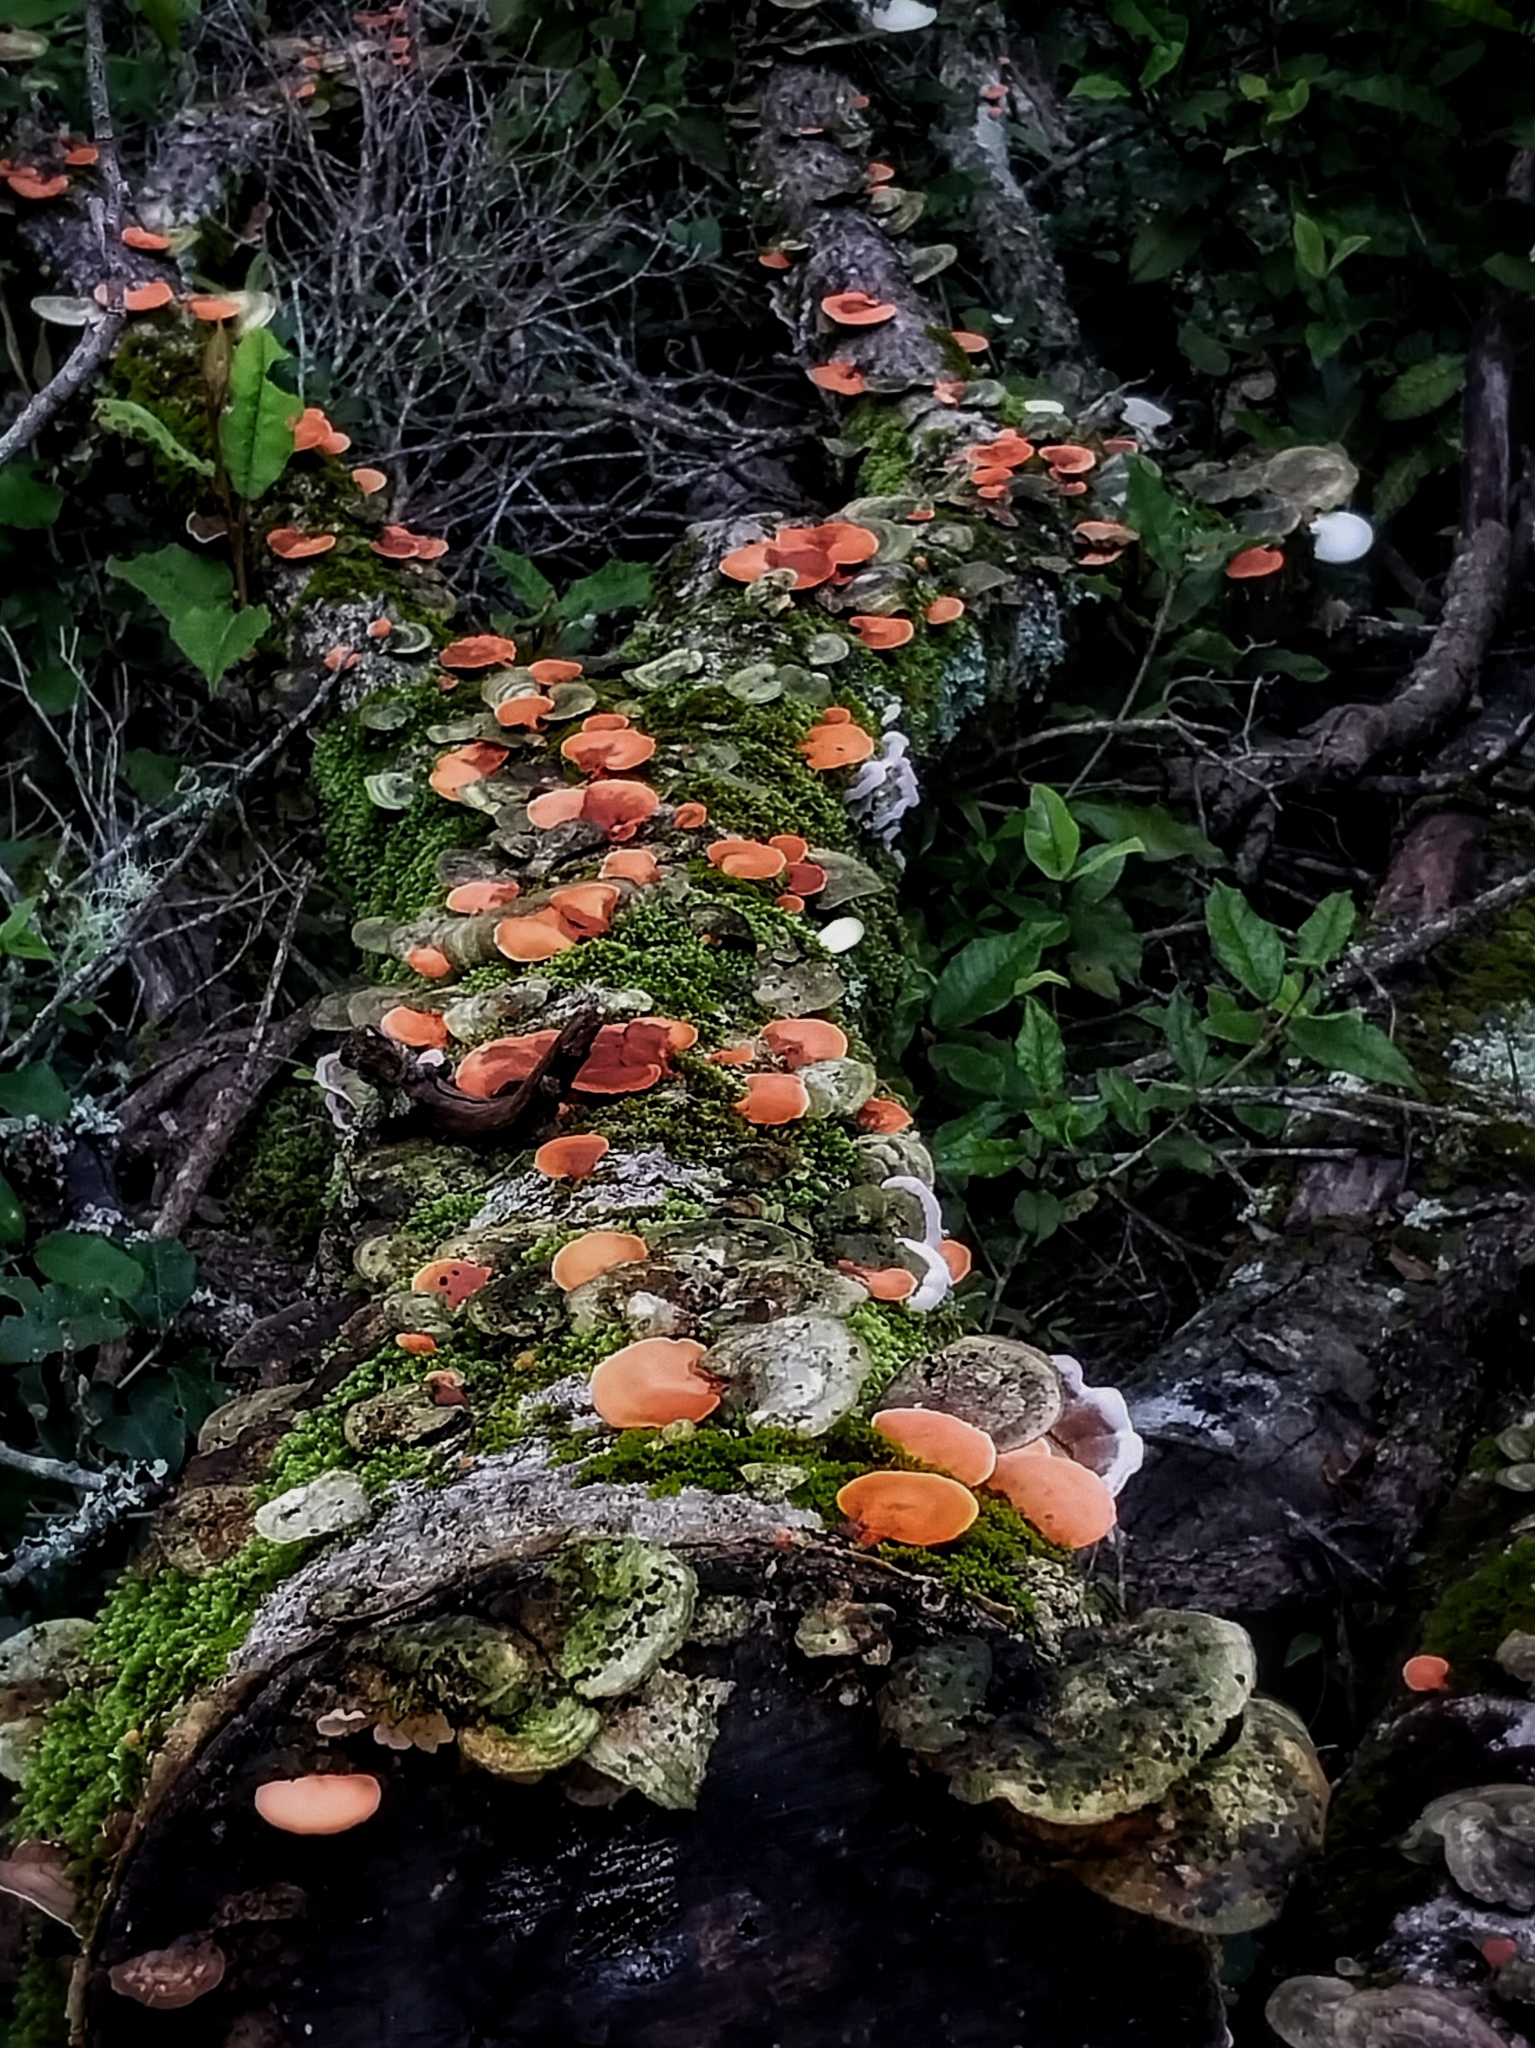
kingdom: Fungi
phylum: Basidiomycota
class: Agaricomycetes
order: Polyporales
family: Polyporaceae
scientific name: Polyporaceae
